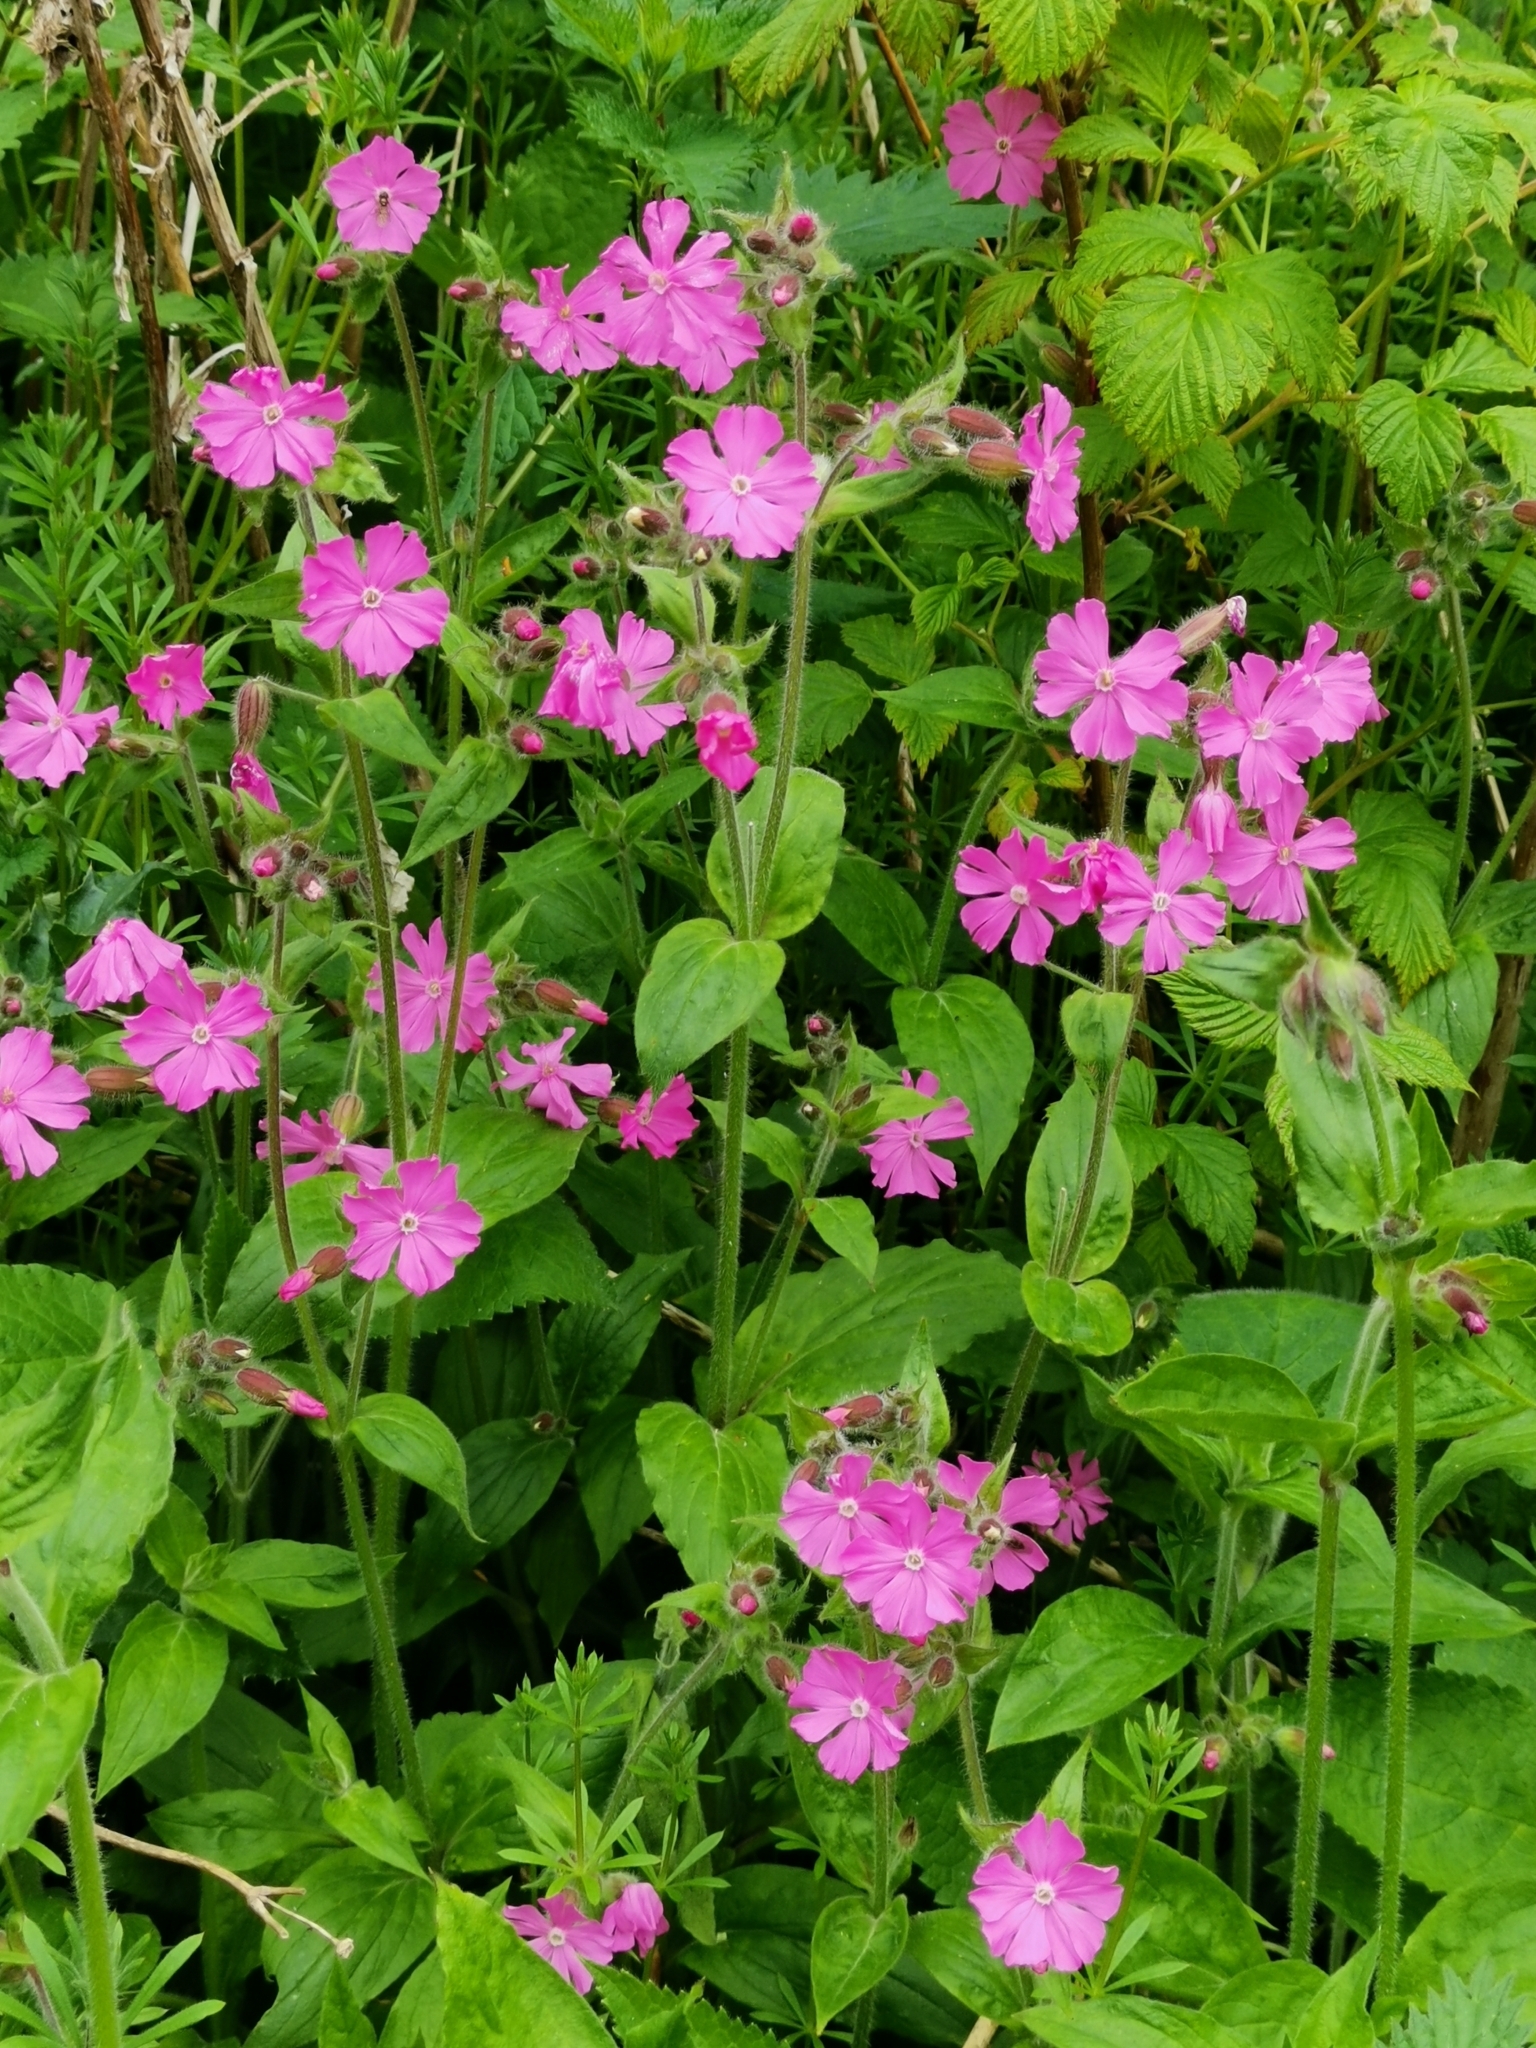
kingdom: Plantae
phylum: Tracheophyta
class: Magnoliopsida
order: Caryophyllales
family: Caryophyllaceae
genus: Silene
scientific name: Silene dioica
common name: Red campion
